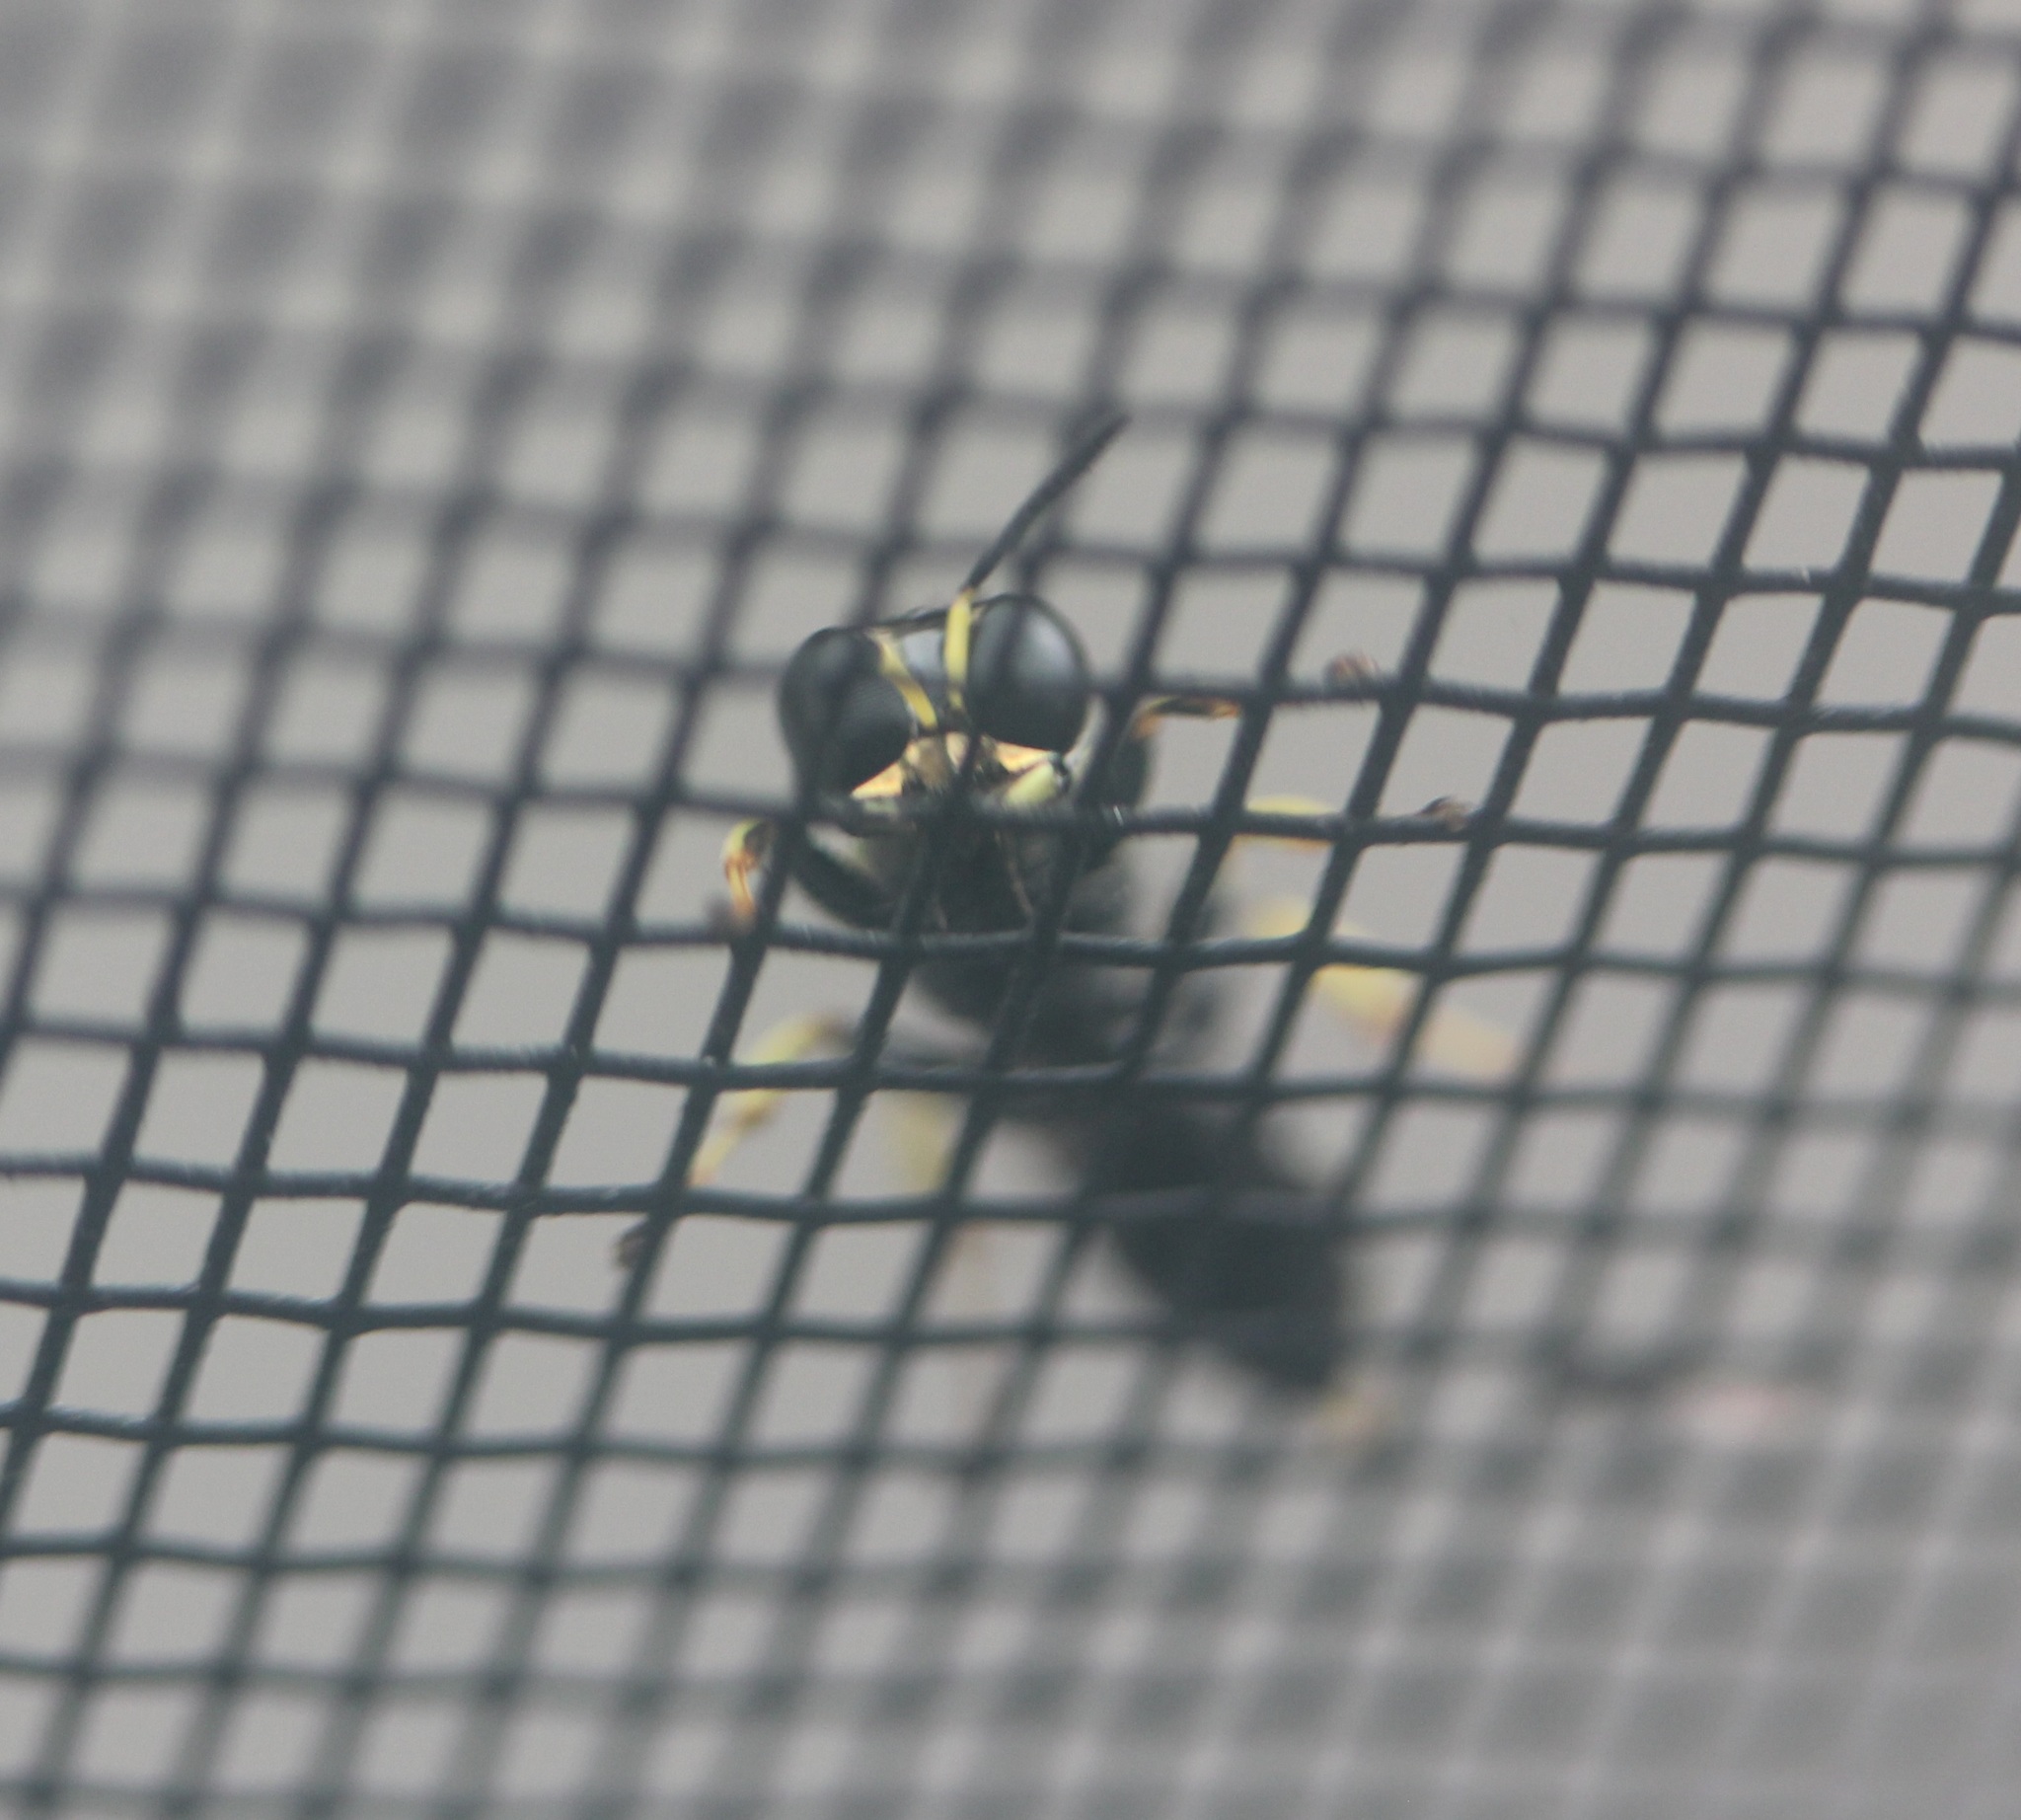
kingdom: Animalia
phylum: Arthropoda
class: Insecta
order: Hymenoptera
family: Crabronidae
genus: Ectemnius
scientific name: Ectemnius ruficornis
